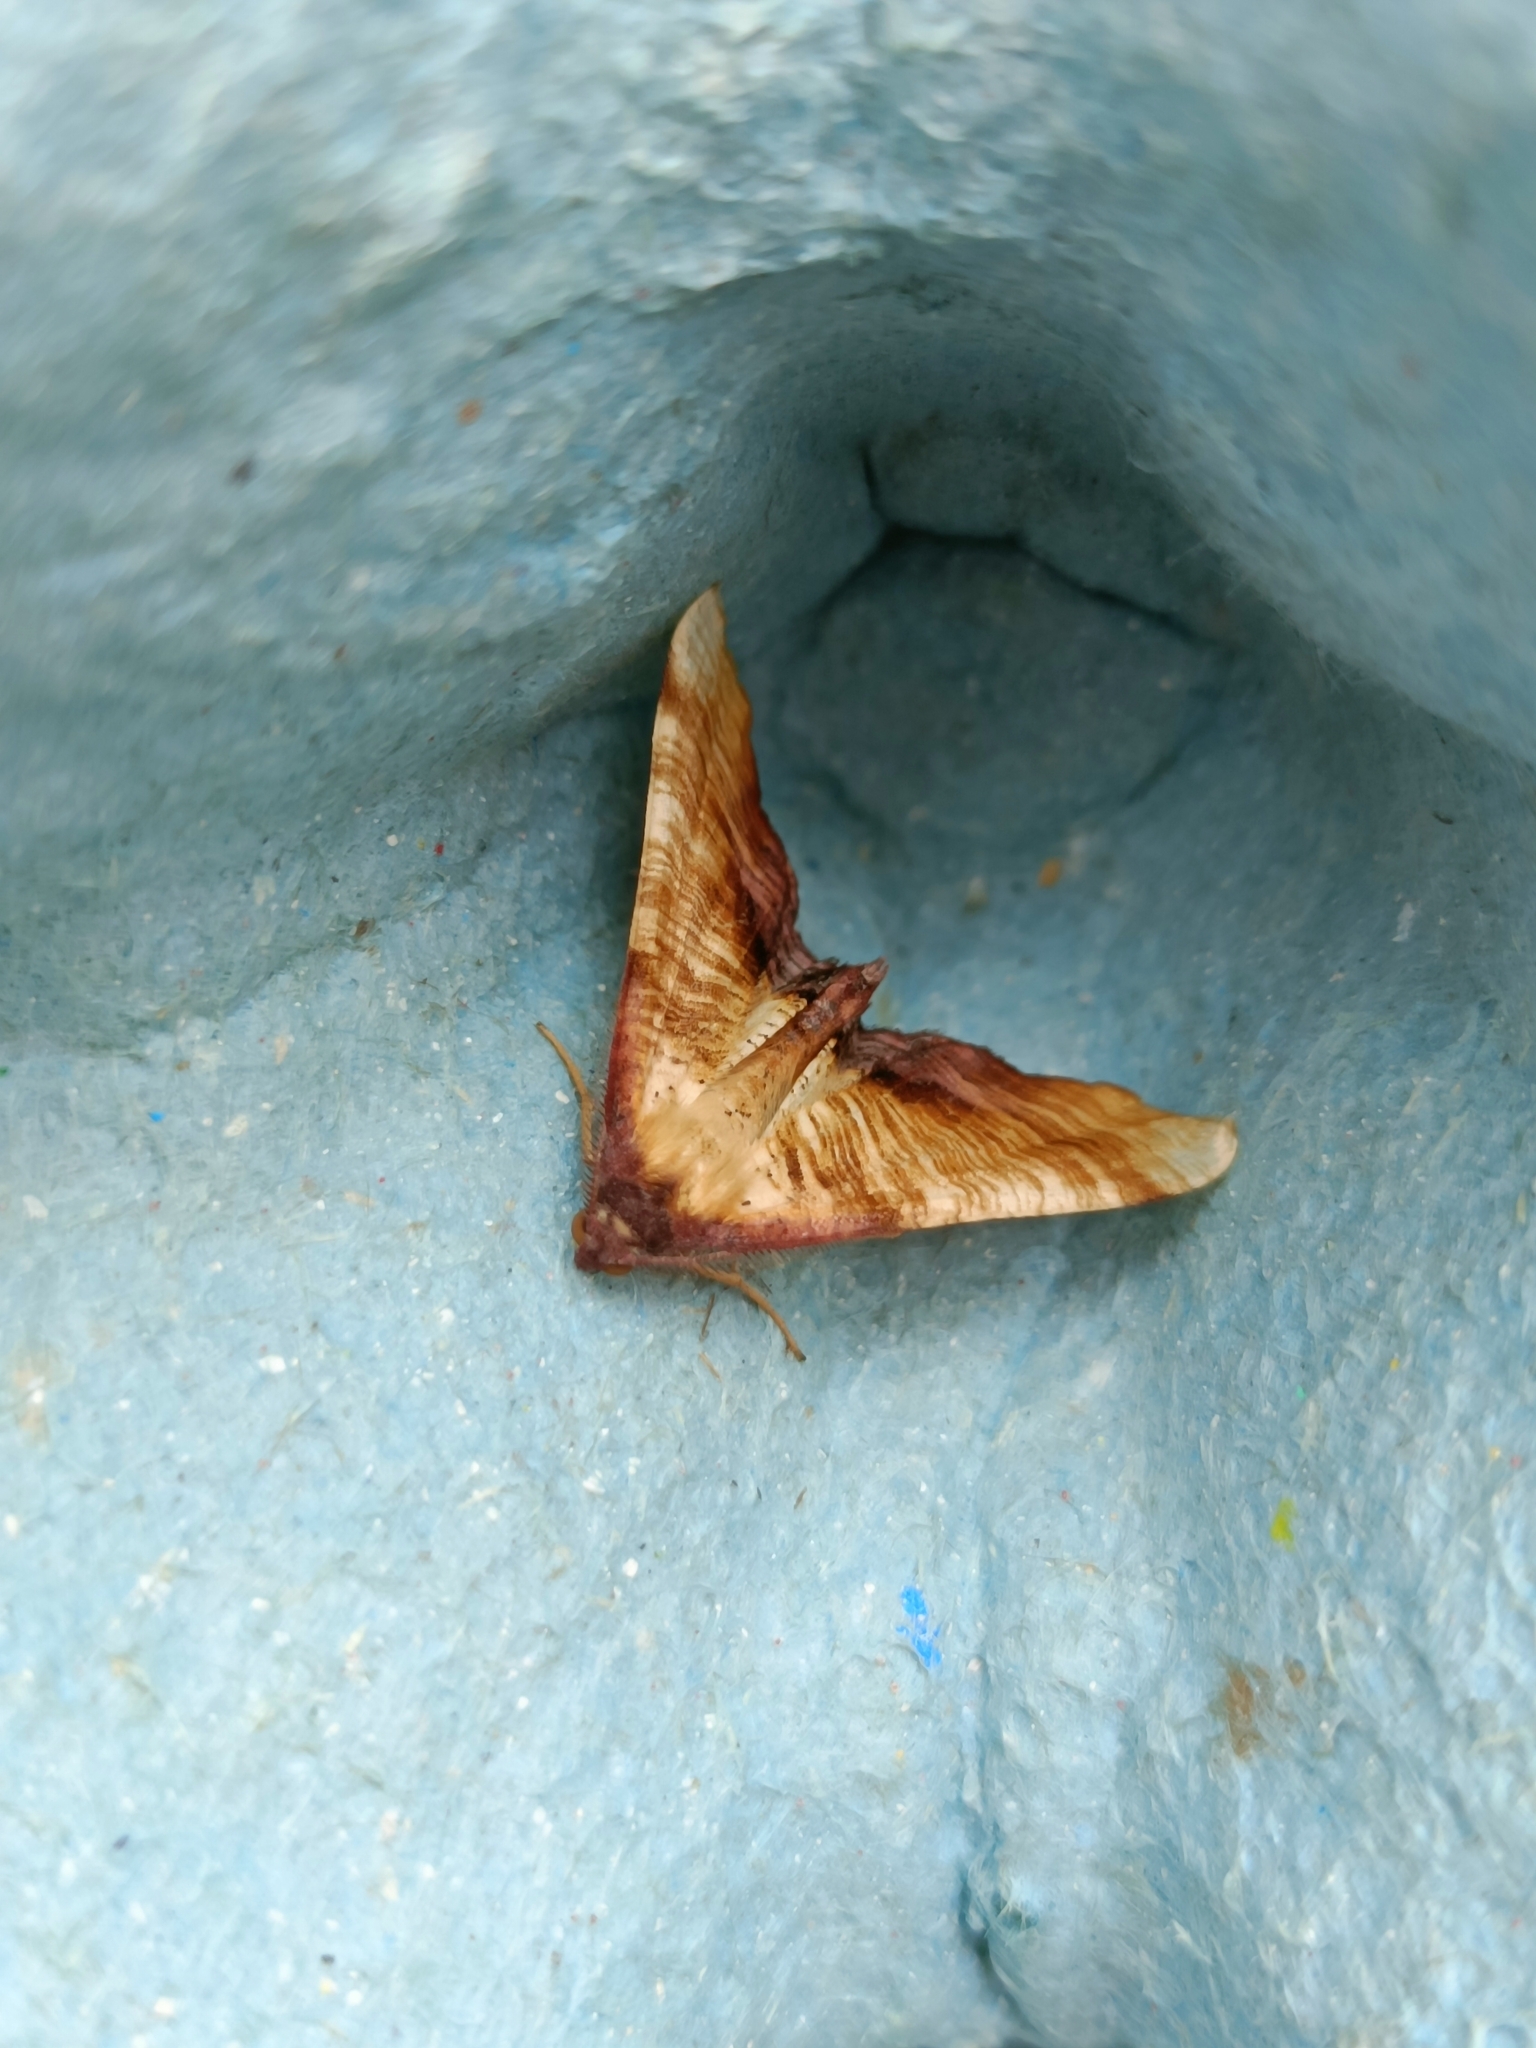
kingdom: Animalia
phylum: Arthropoda
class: Insecta
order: Lepidoptera
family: Geometridae
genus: Plagodis
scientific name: Plagodis dolabraria
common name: Scorched wing
